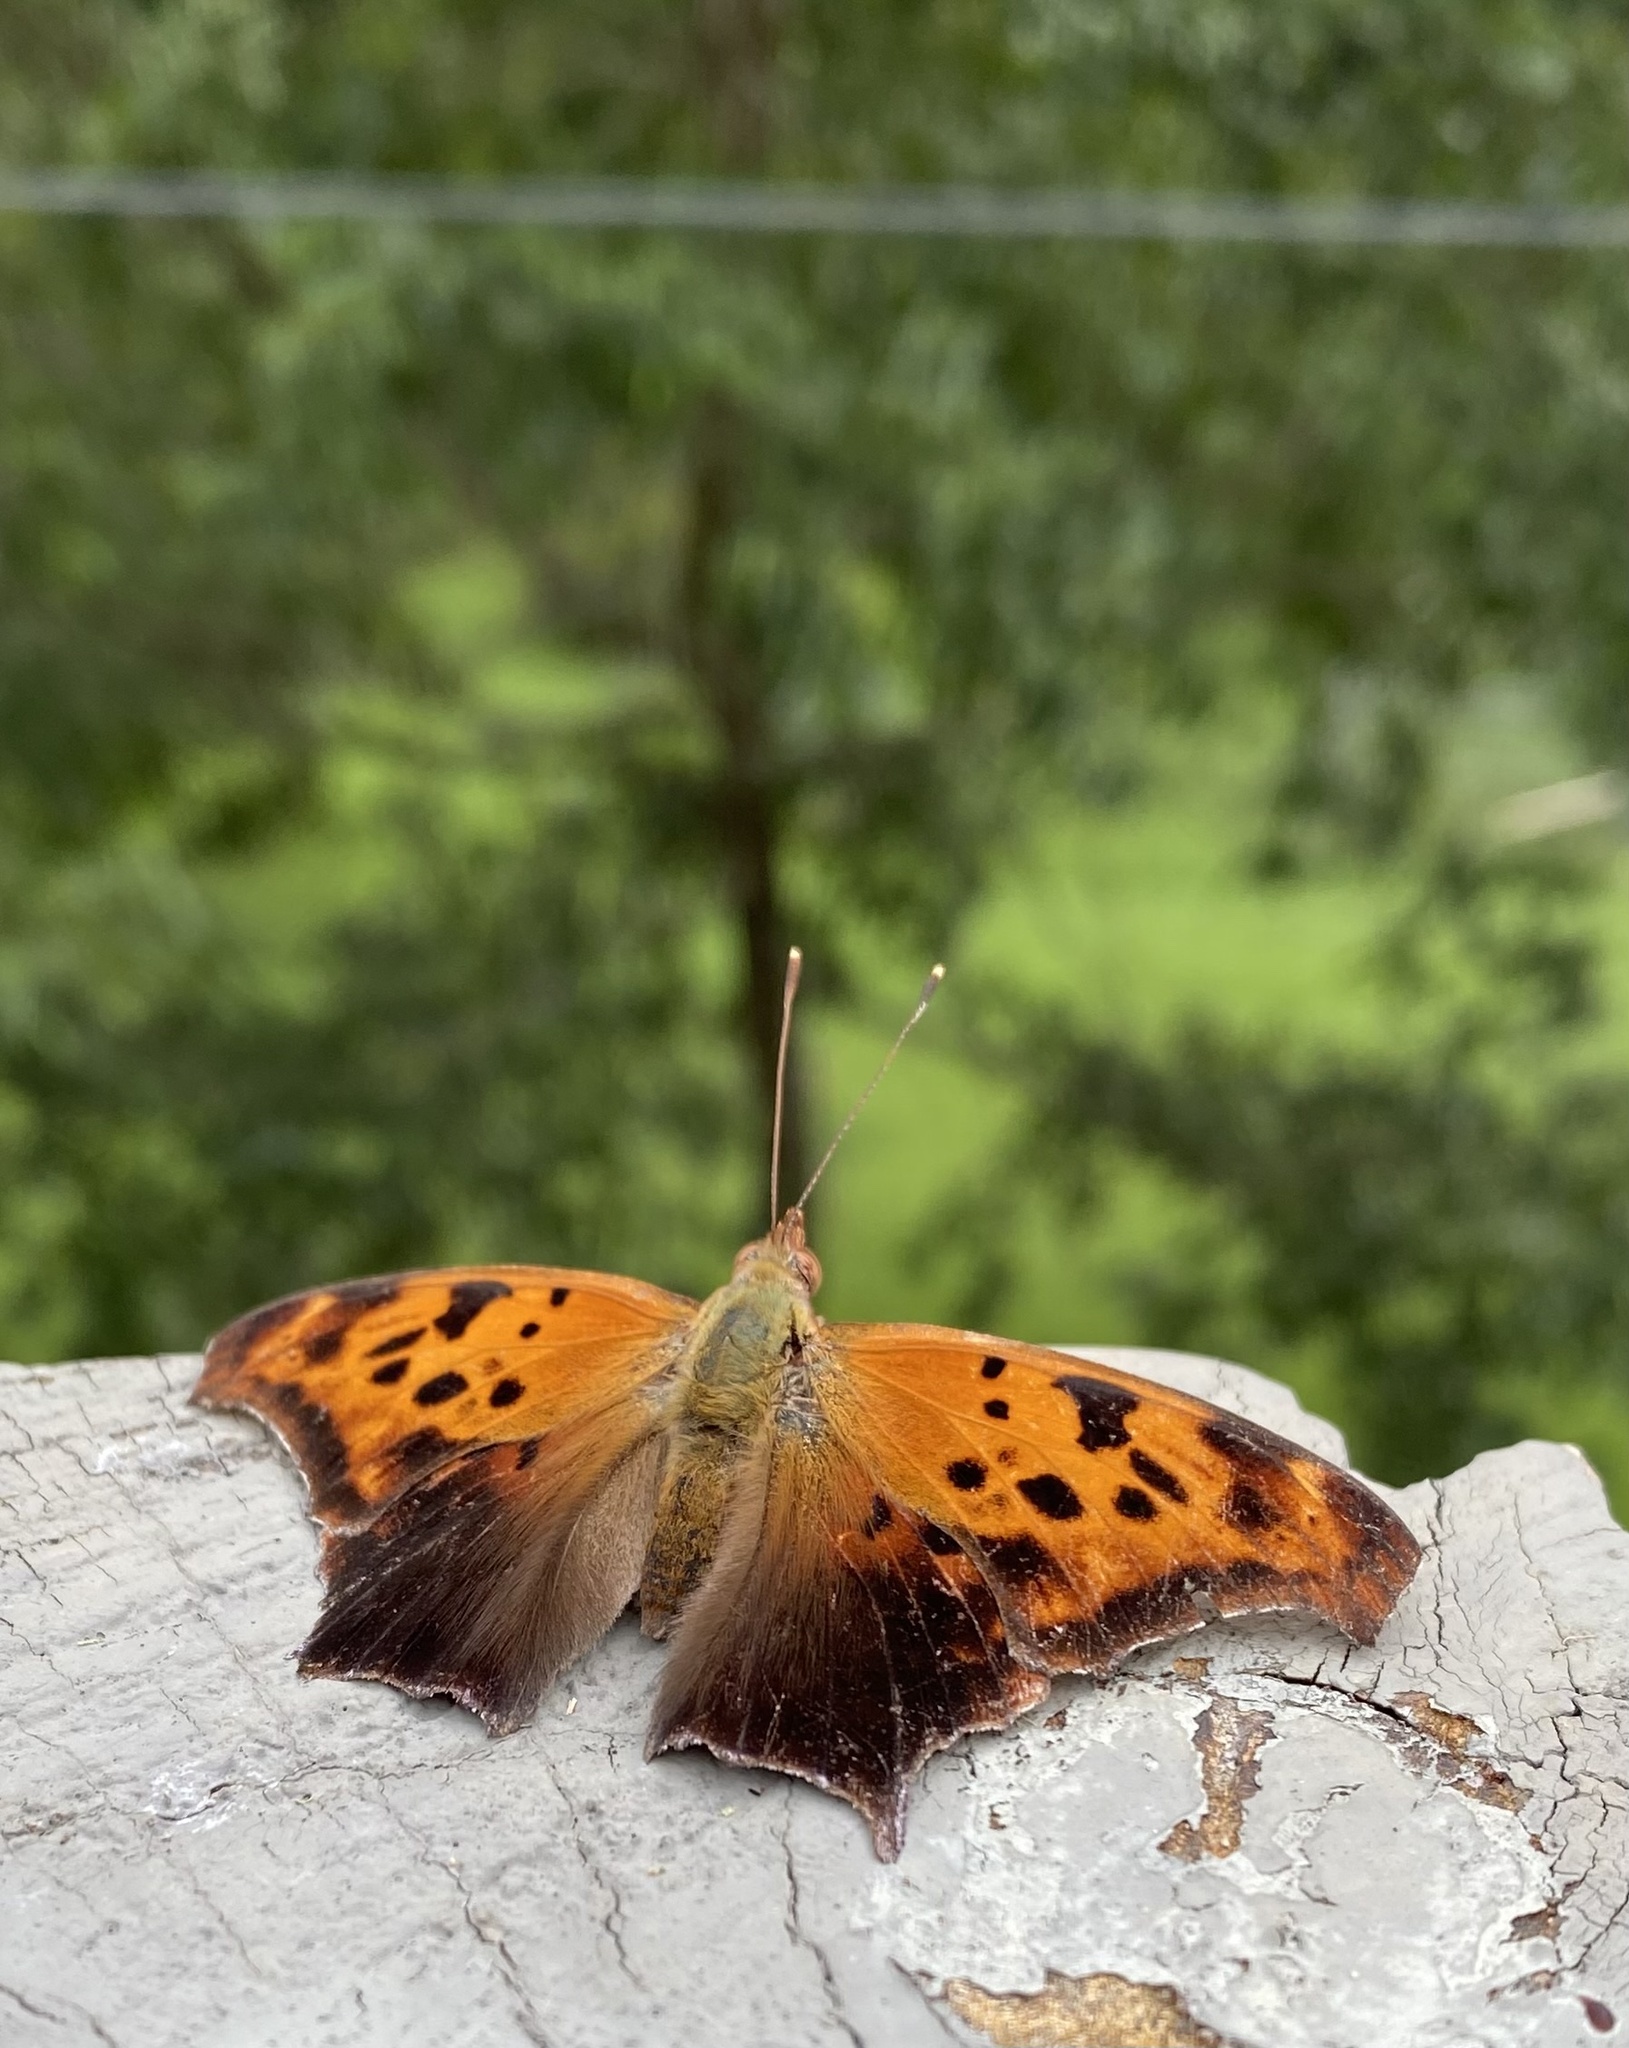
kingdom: Animalia
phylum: Arthropoda
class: Insecta
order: Lepidoptera
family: Nymphalidae
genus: Polygonia
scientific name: Polygonia interrogationis
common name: Question mark
